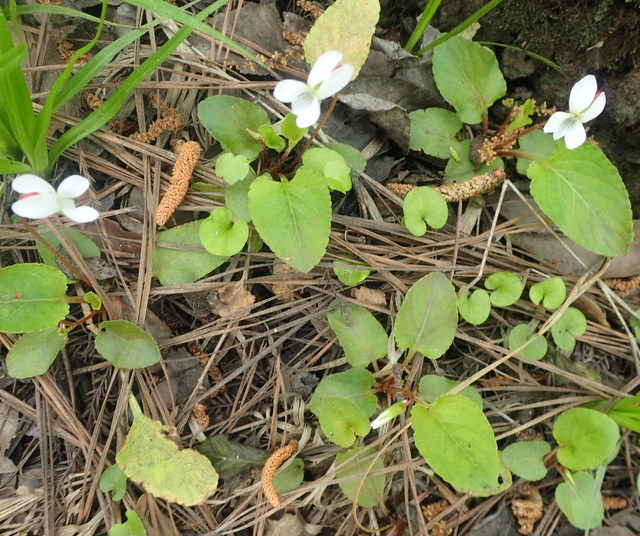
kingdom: Plantae
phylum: Tracheophyta
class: Magnoliopsida
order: Malpighiales
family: Violaceae
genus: Viola
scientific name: Viola primulifolia
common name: Primrose-leaf violet
